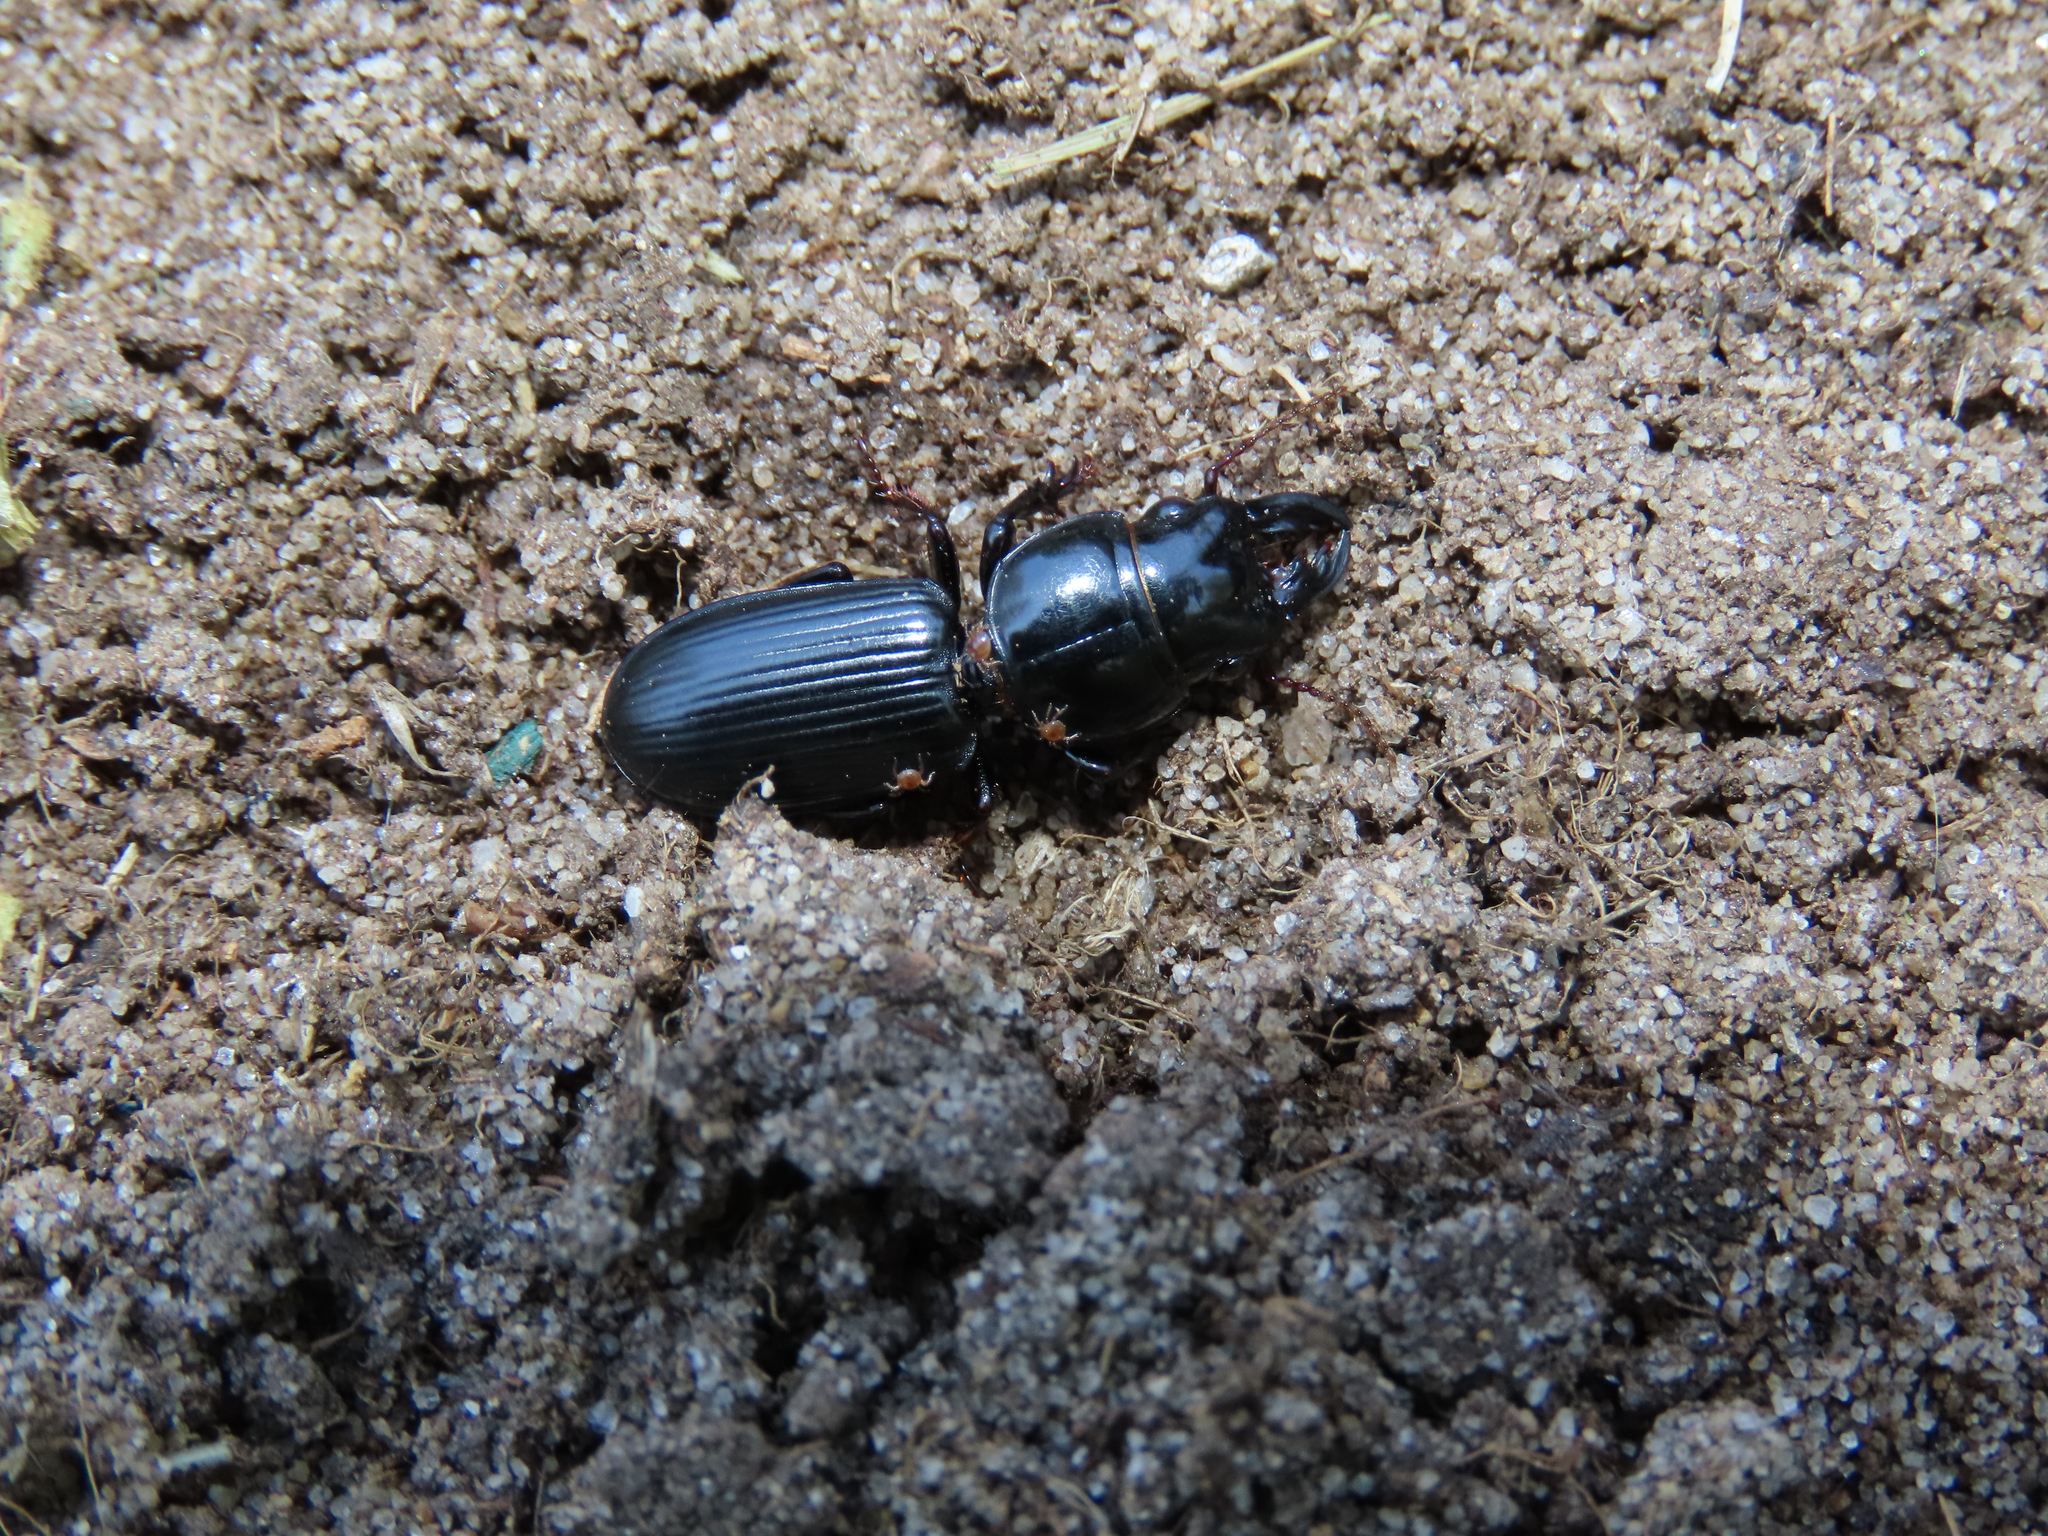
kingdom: Animalia
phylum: Arthropoda
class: Insecta
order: Coleoptera
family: Carabidae
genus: Scarites
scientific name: Scarites subterraneus
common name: Big-headed ground beetle
